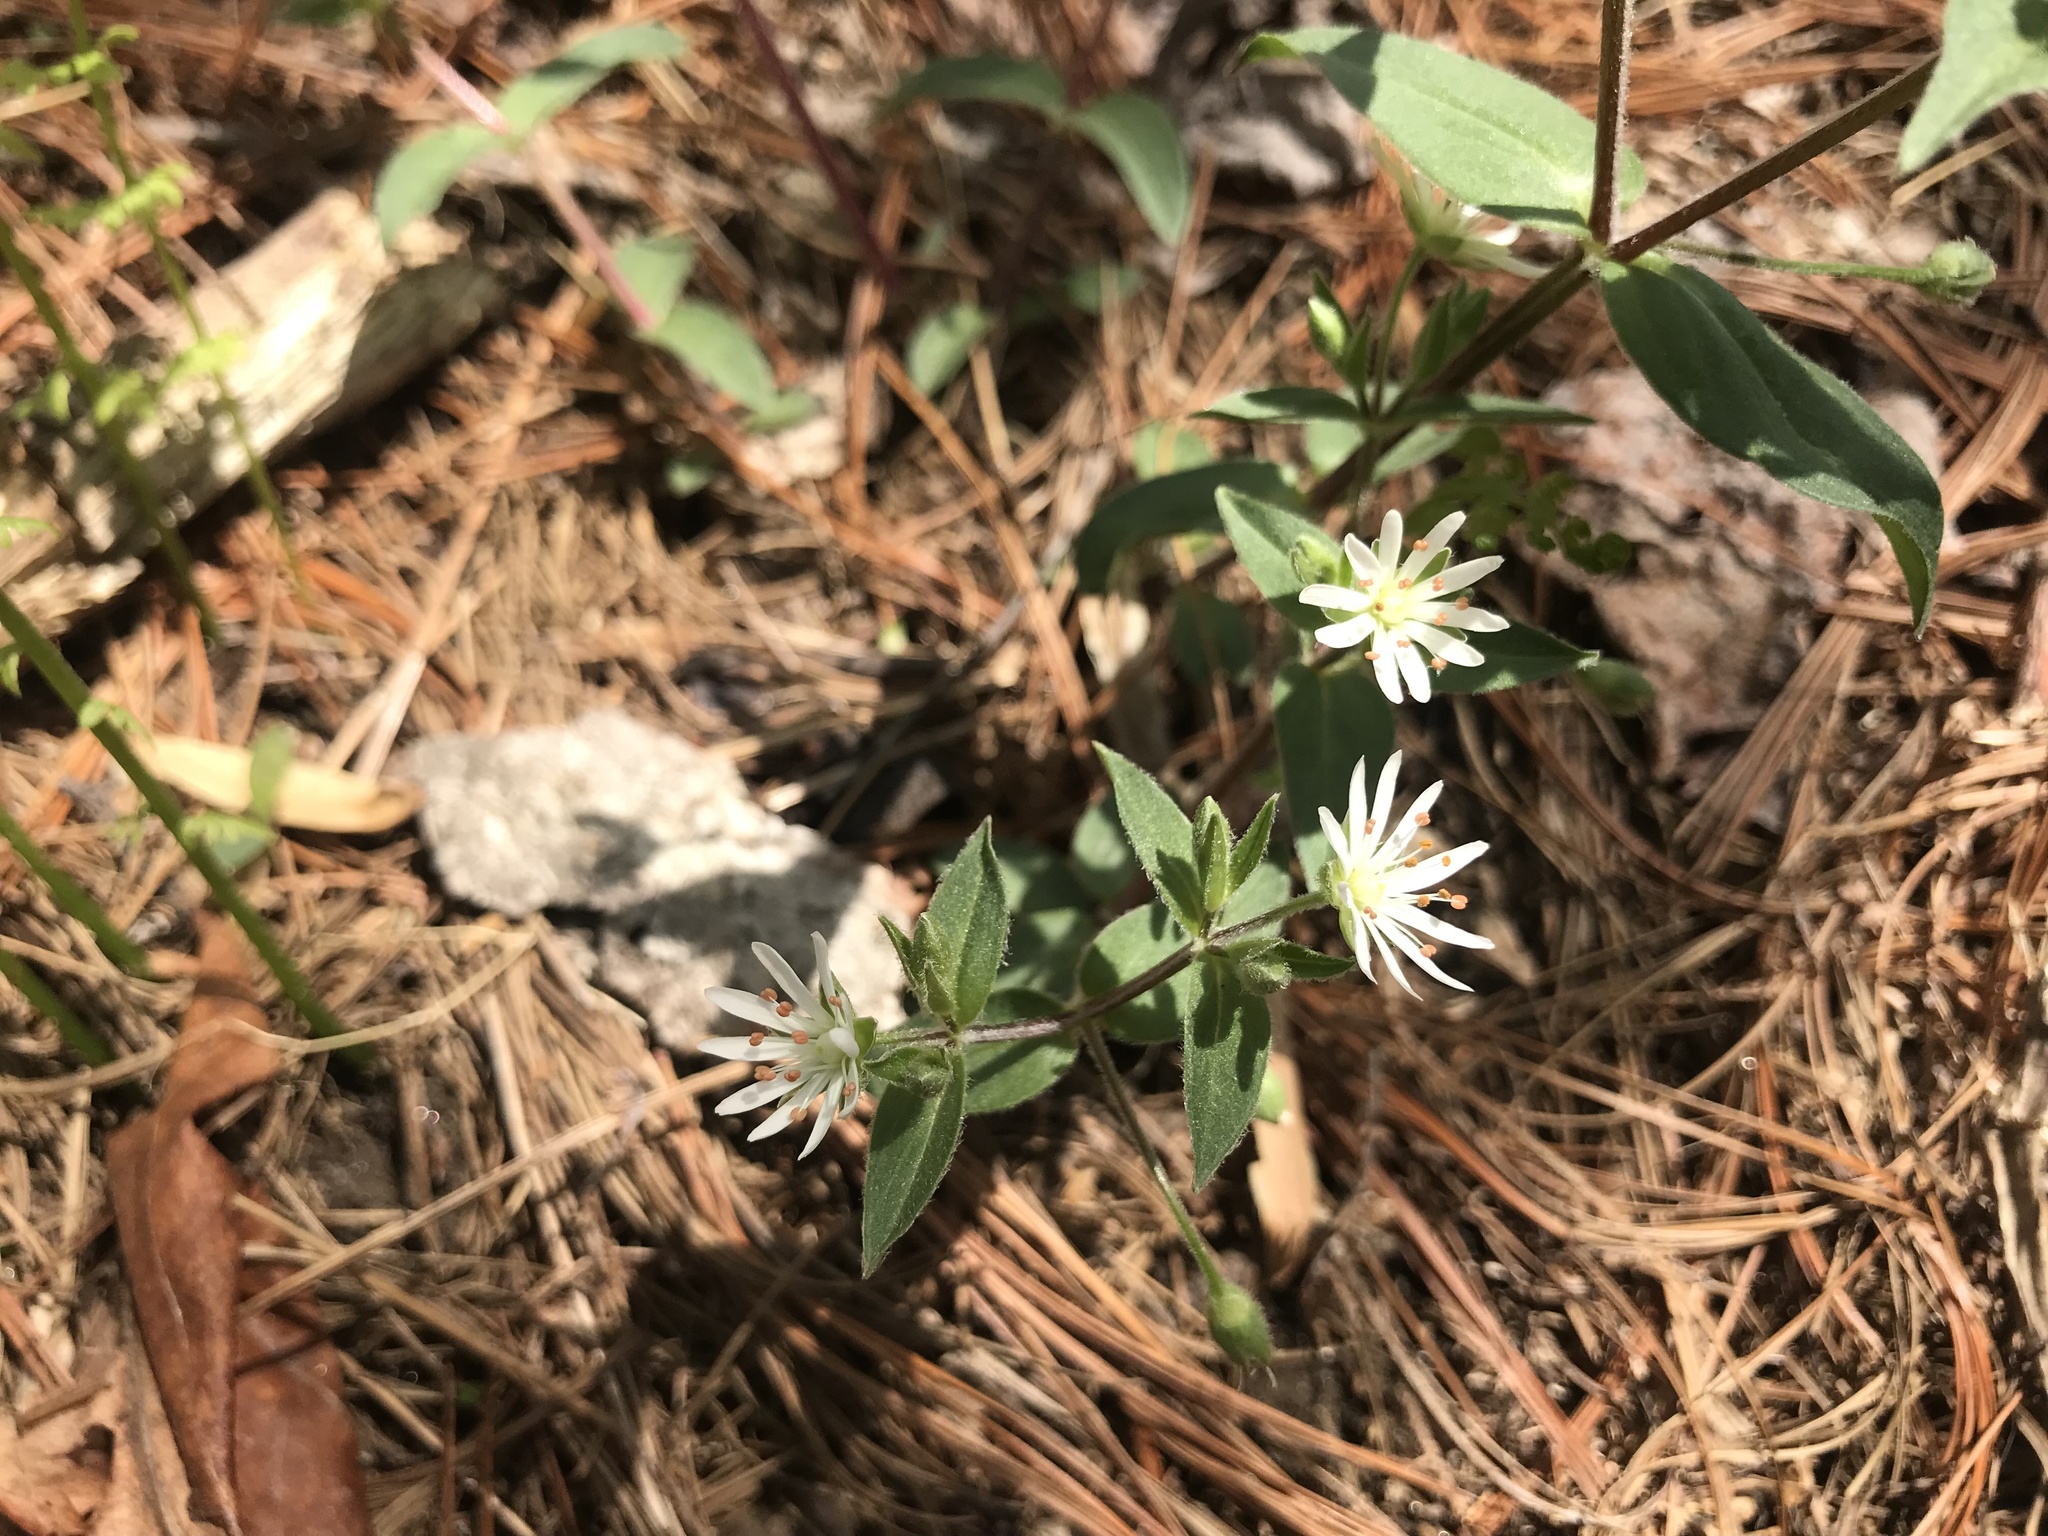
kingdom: Plantae
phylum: Tracheophyta
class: Magnoliopsida
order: Caryophyllales
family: Caryophyllaceae
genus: Stellaria
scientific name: Stellaria pubera
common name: Star chickweed
